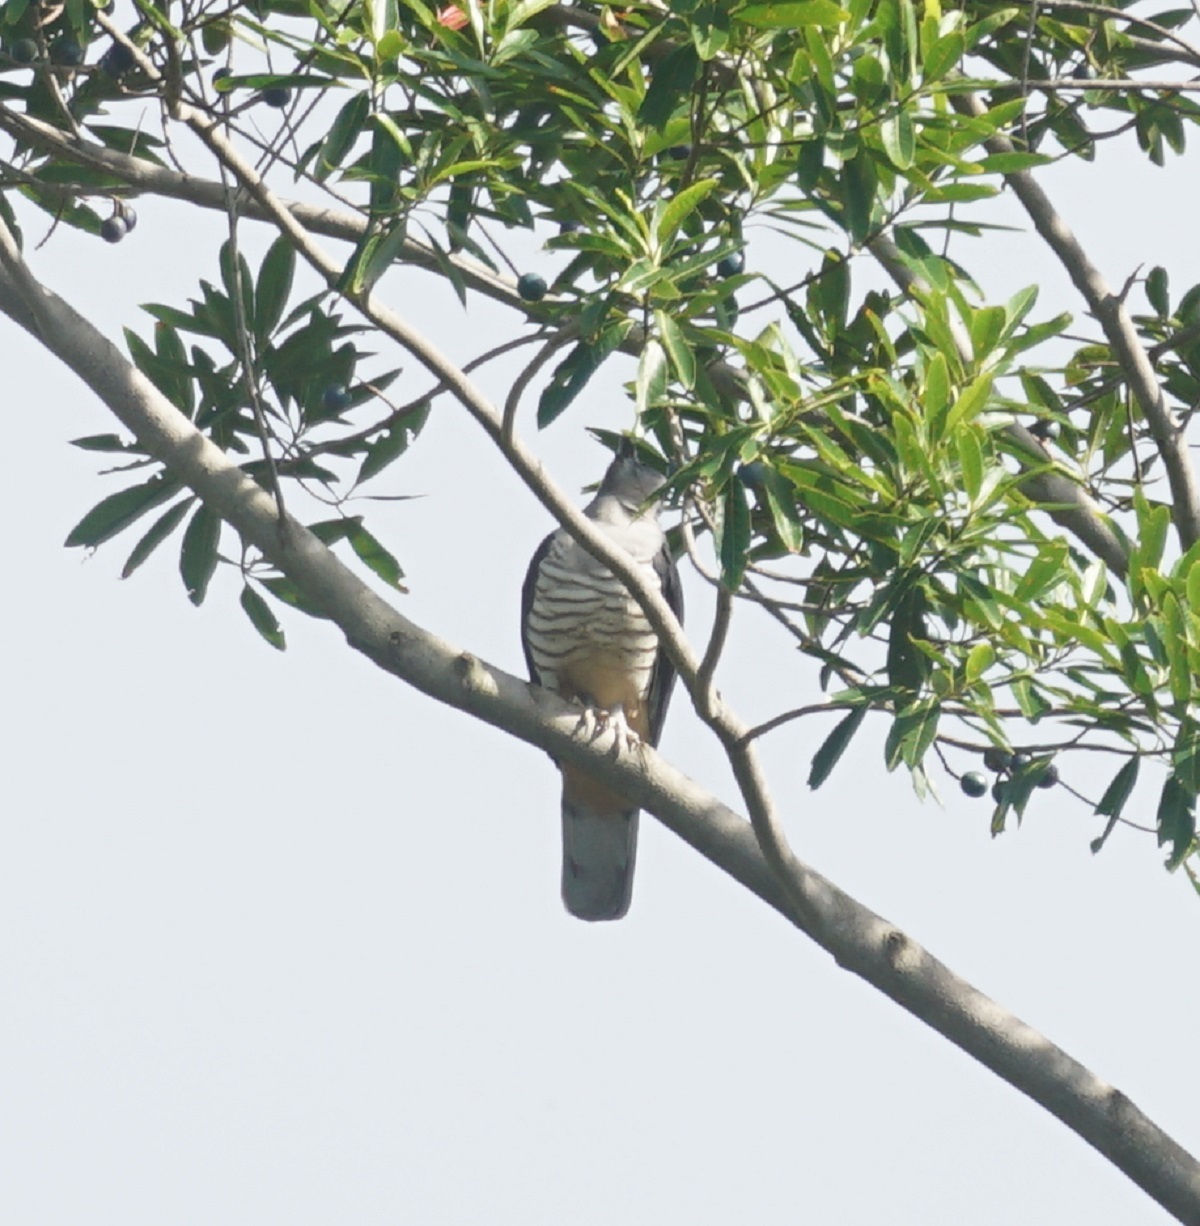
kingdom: Animalia
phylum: Chordata
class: Aves
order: Accipitriformes
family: Accipitridae
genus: Aviceda
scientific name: Aviceda subcristata
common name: Pacific baza
